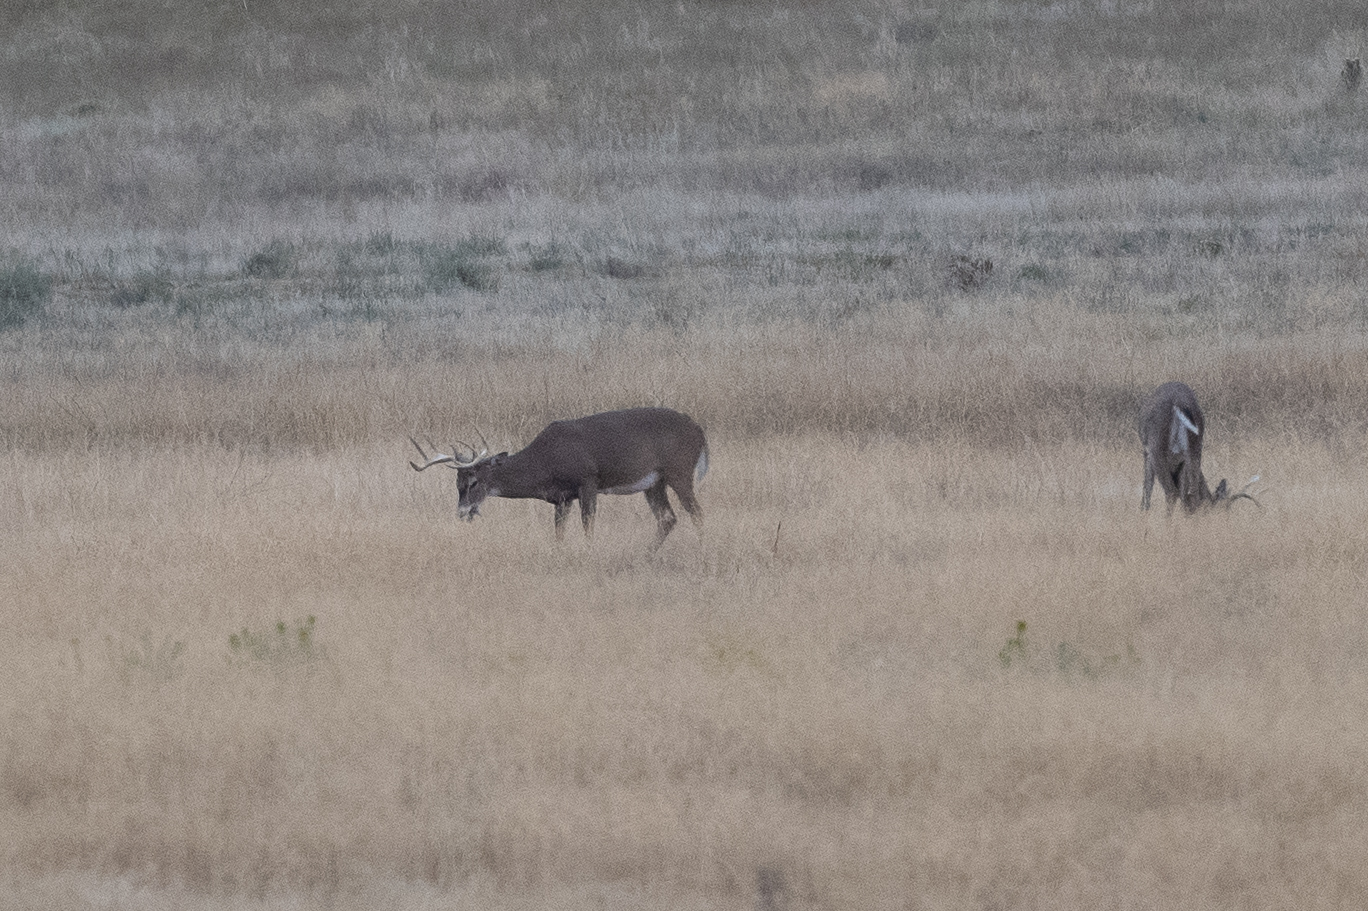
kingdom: Animalia
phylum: Chordata
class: Mammalia
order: Artiodactyla
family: Cervidae
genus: Odocoileus
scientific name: Odocoileus virginianus
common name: White-tailed deer
